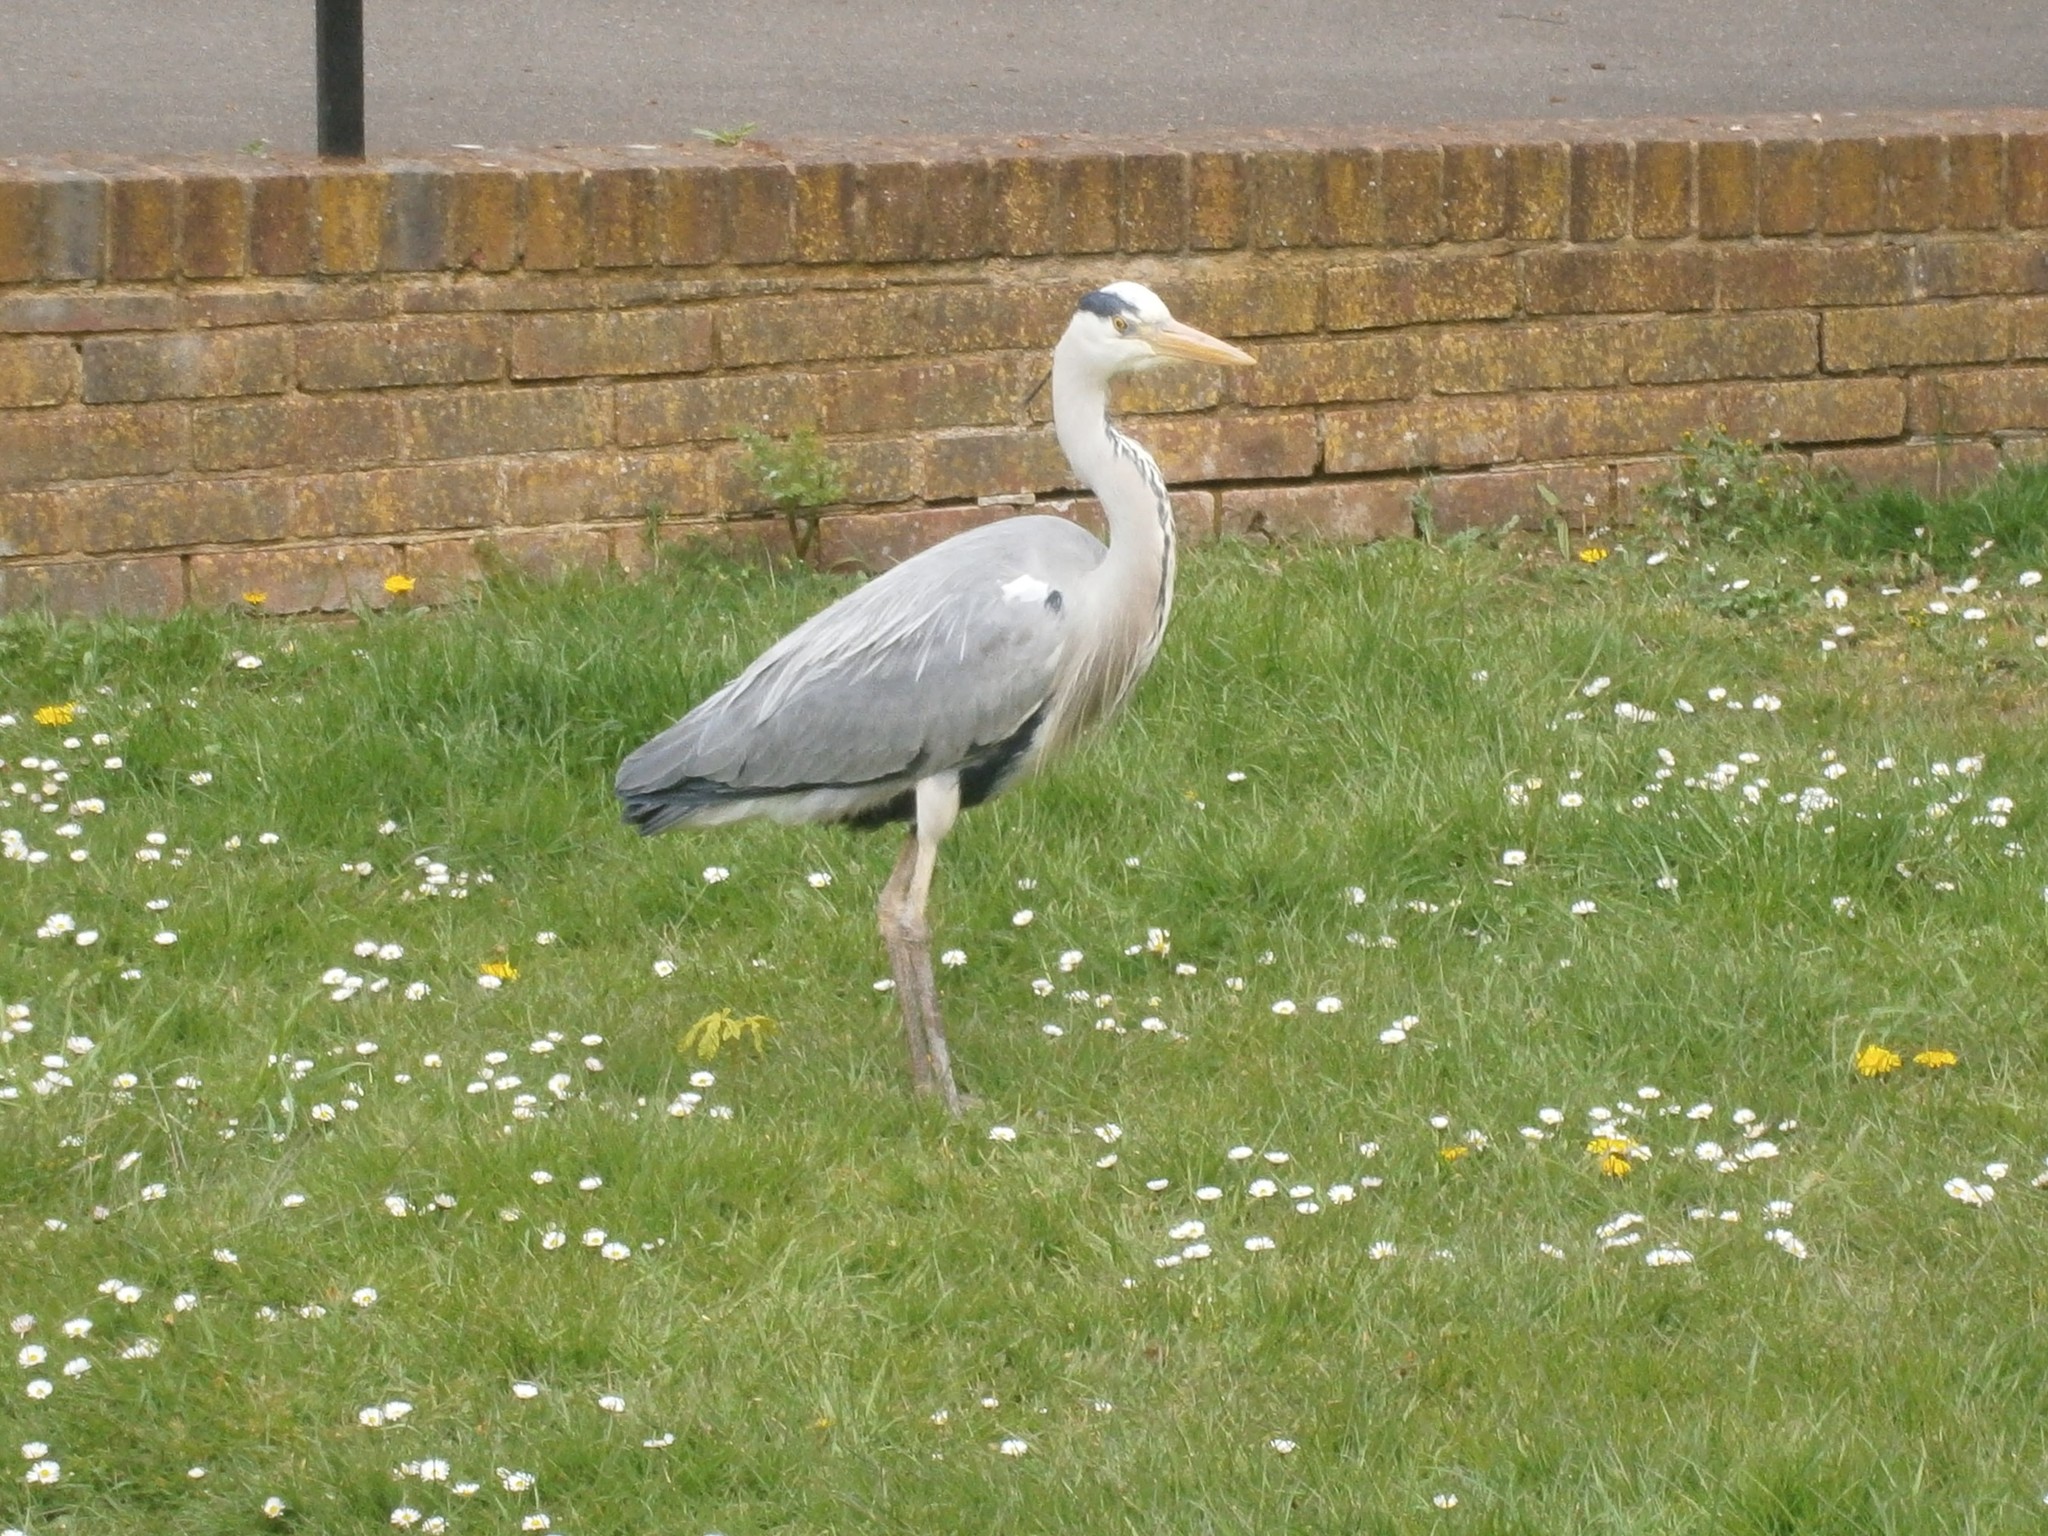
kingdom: Animalia
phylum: Chordata
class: Aves
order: Pelecaniformes
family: Ardeidae
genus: Ardea
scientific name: Ardea cinerea
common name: Grey heron
